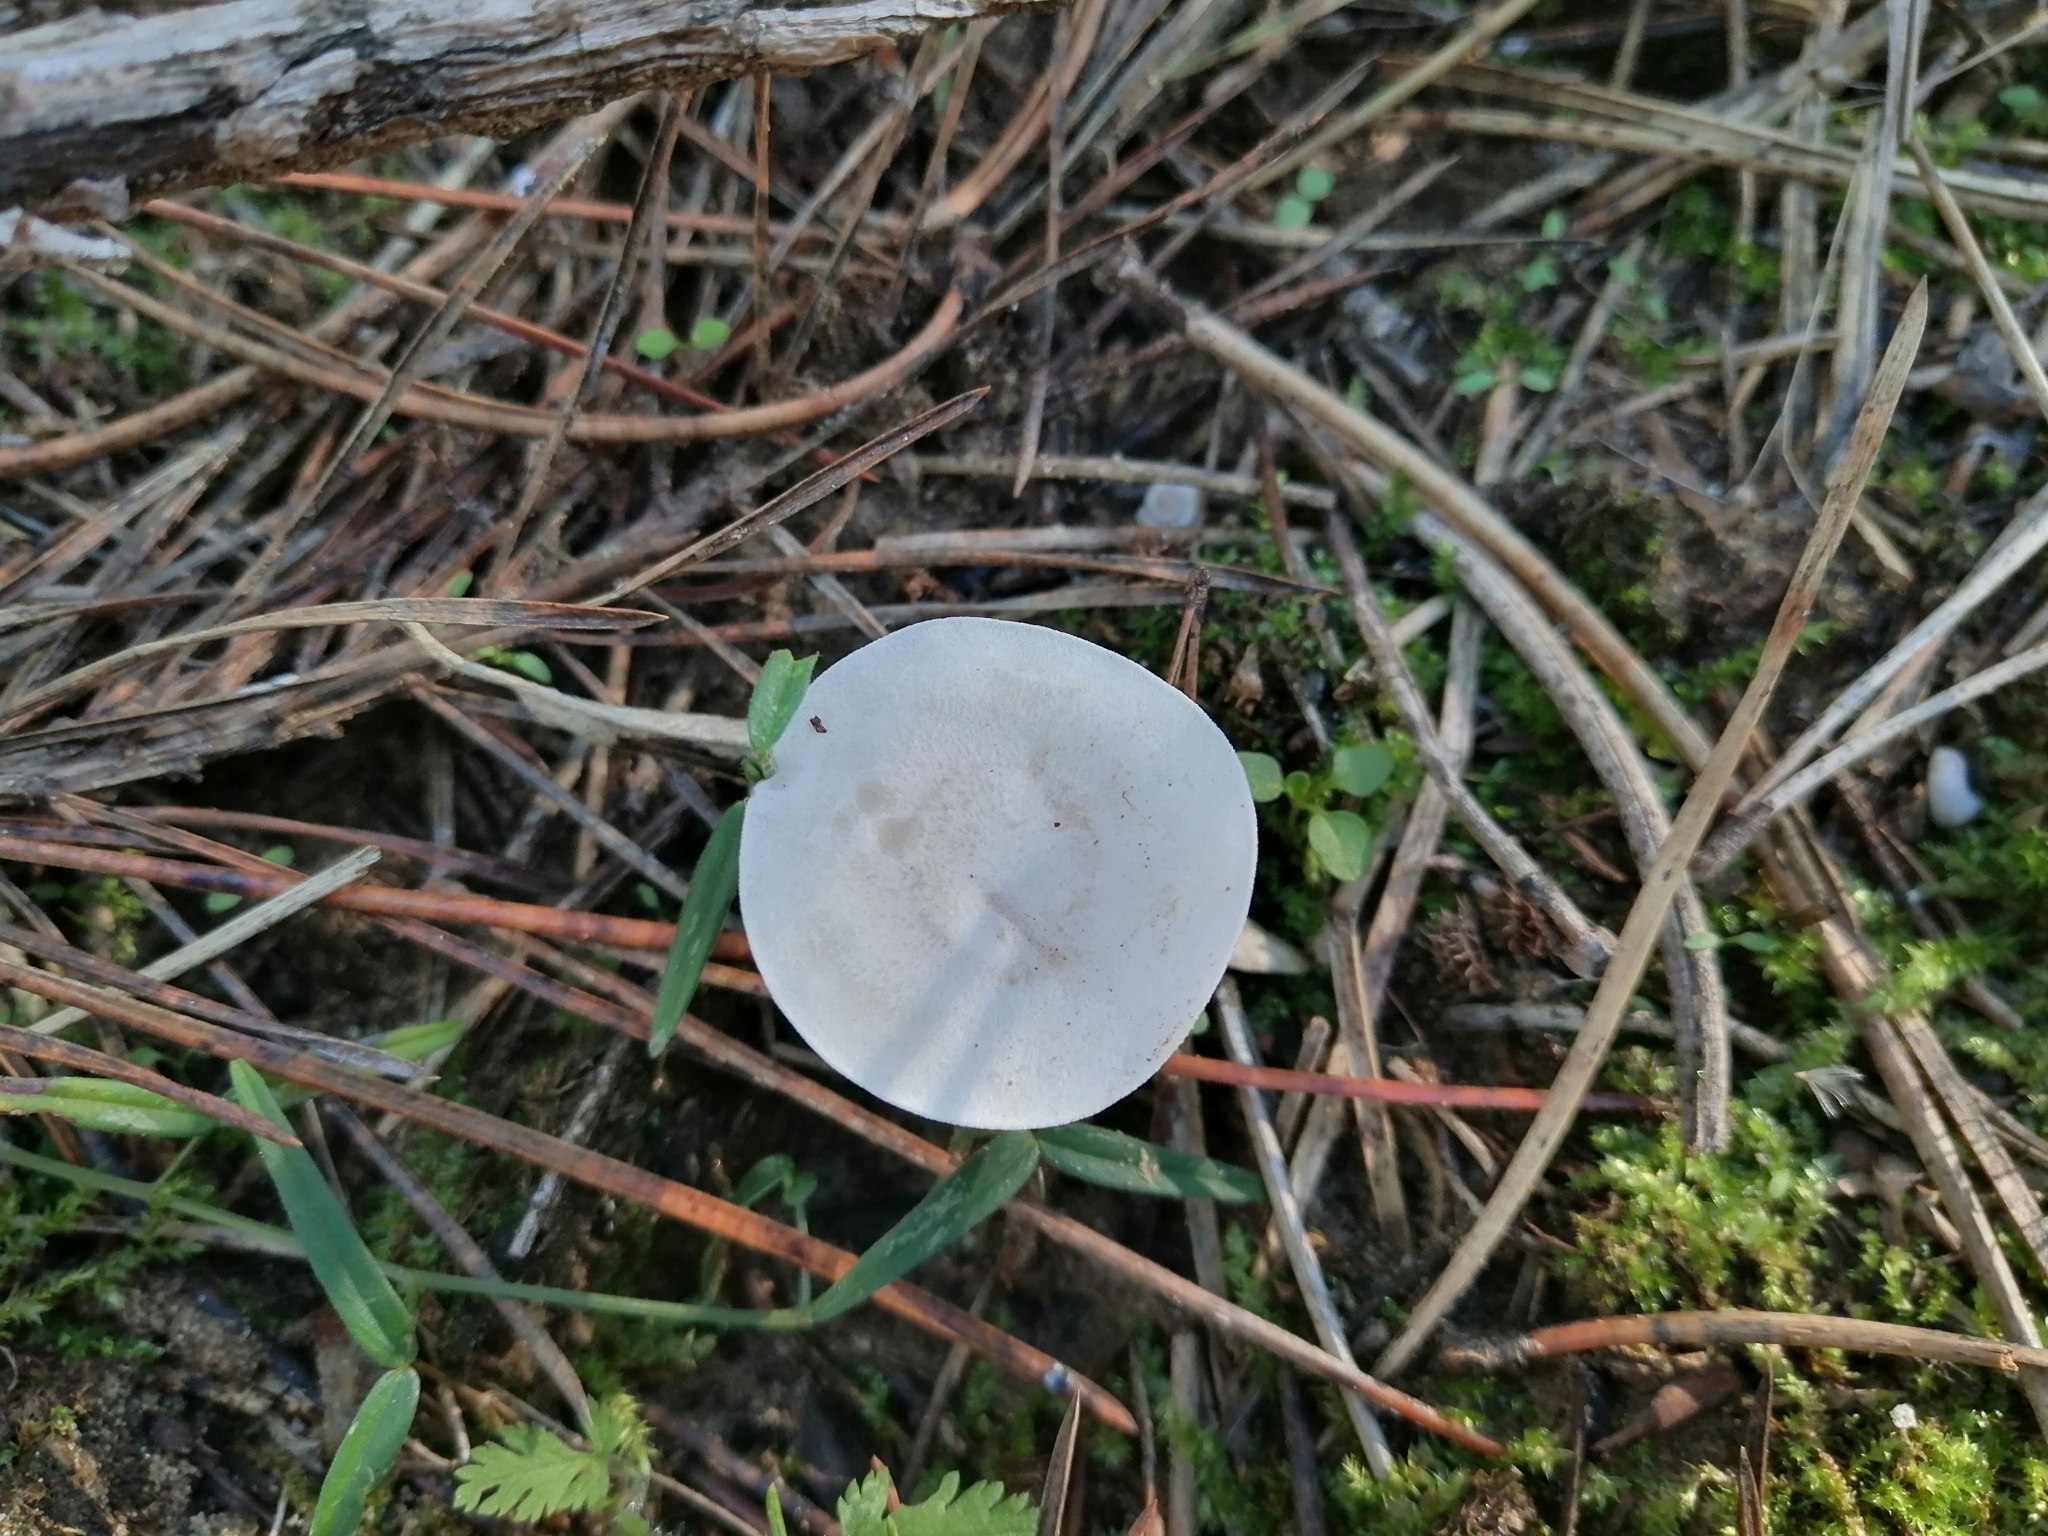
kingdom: Fungi
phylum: Basidiomycota
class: Agaricomycetes
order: Agaricales
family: Tricholomataceae
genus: Collybia
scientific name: Collybia phylladophila
